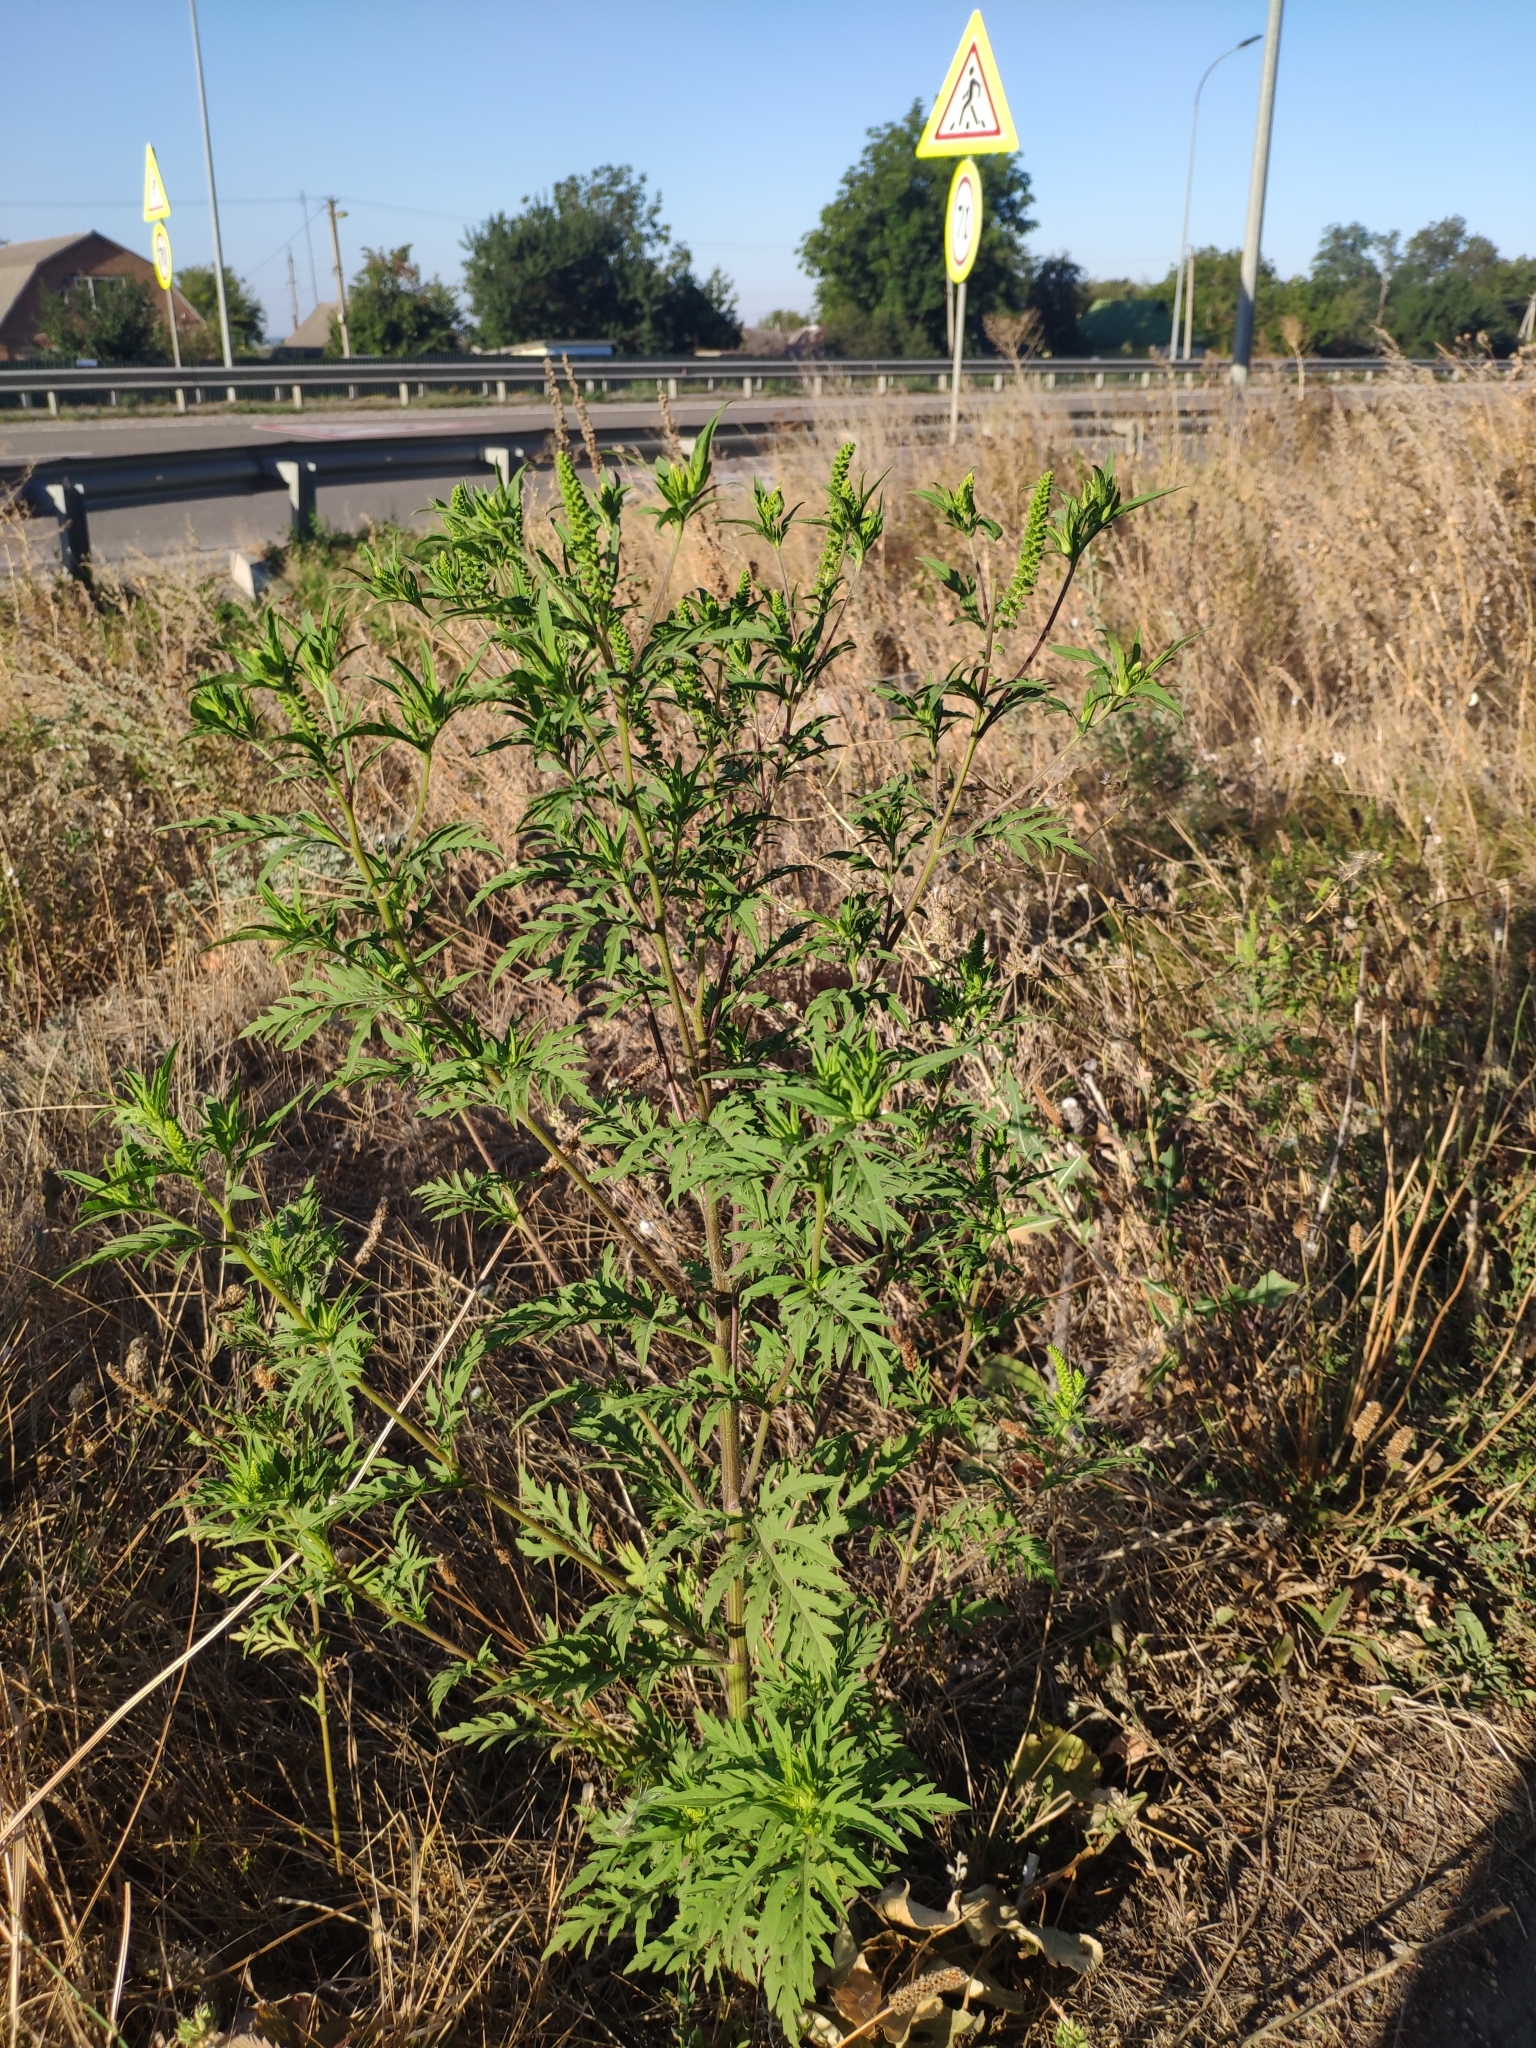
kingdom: Plantae
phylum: Tracheophyta
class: Magnoliopsida
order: Asterales
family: Asteraceae
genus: Ambrosia
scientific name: Ambrosia artemisiifolia
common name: Annual ragweed
